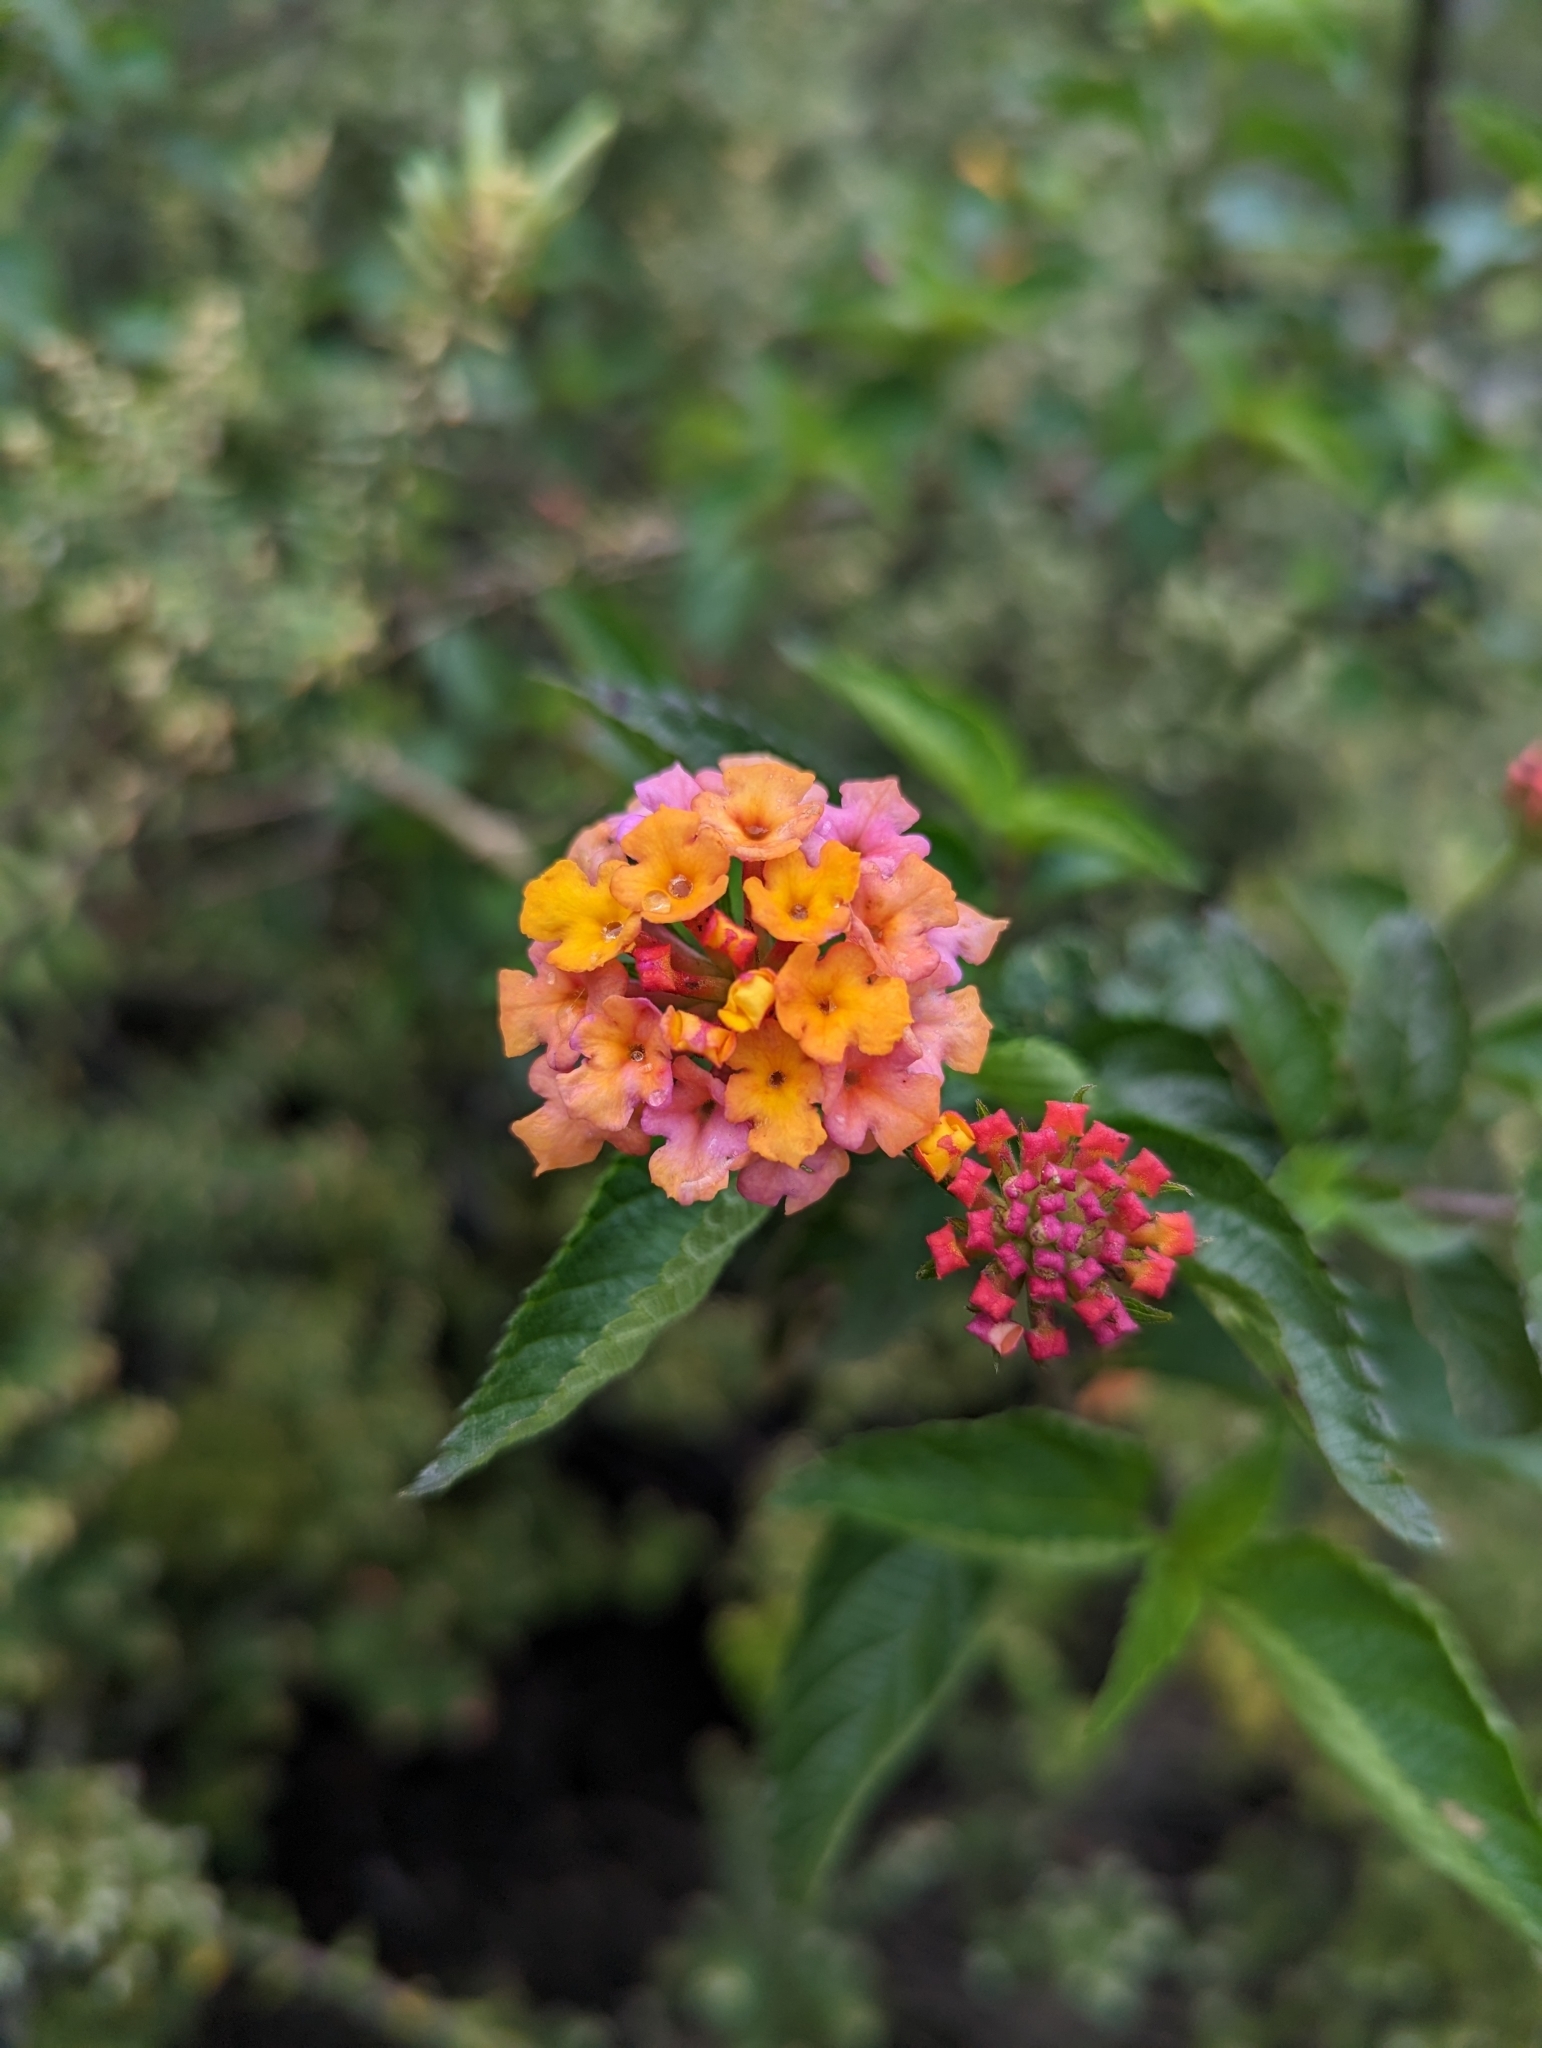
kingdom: Plantae
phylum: Tracheophyta
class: Magnoliopsida
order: Lamiales
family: Verbenaceae
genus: Lantana
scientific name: Lantana camara
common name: Lantana
